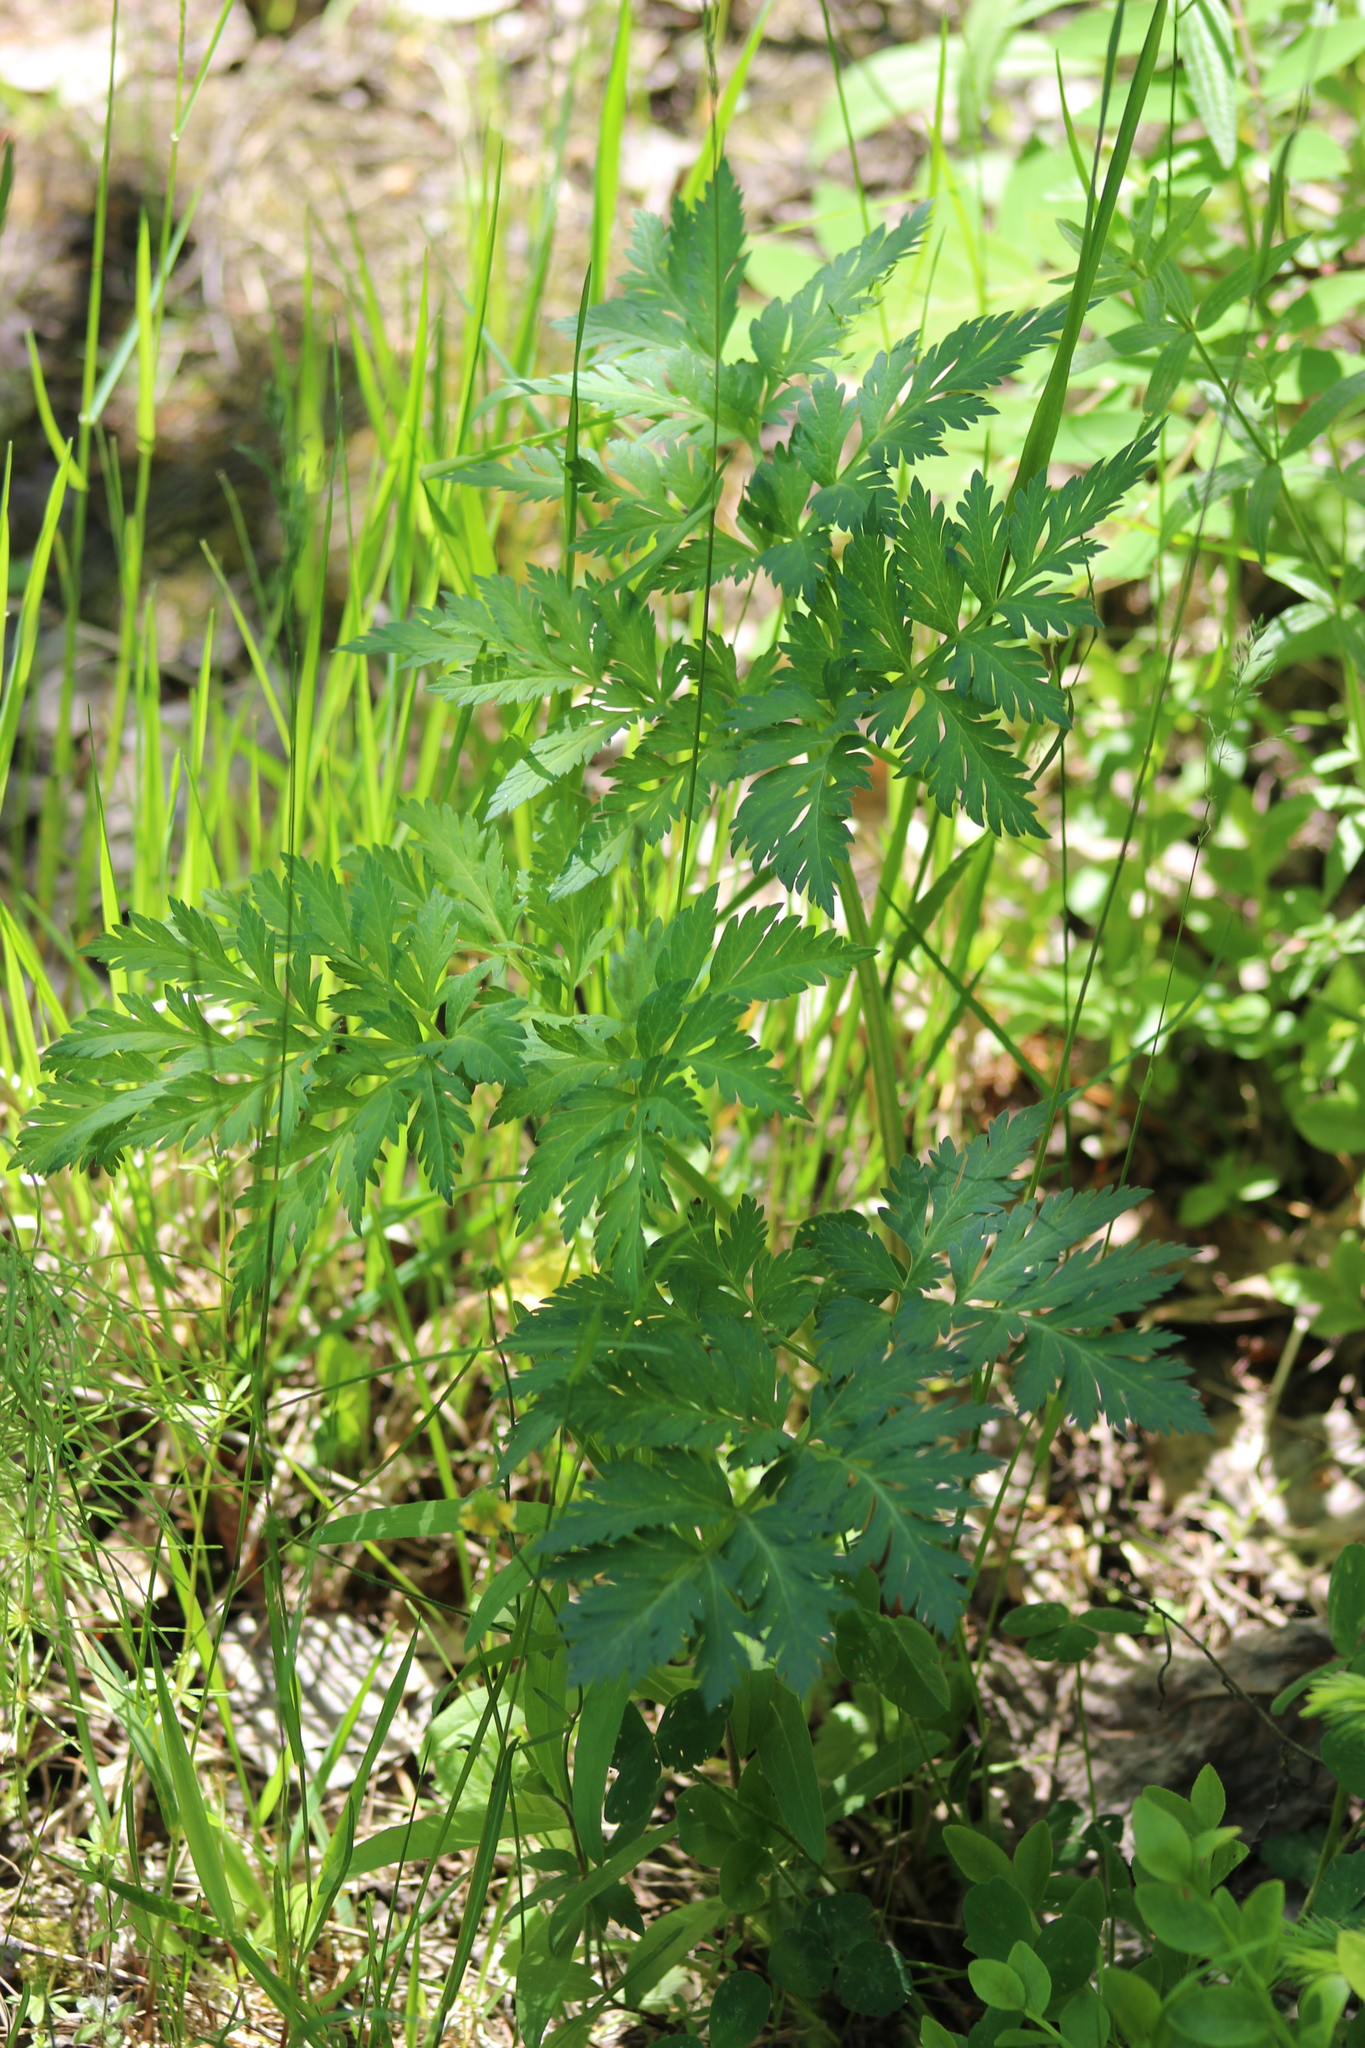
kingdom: Plantae
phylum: Tracheophyta
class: Magnoliopsida
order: Apiales
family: Apiaceae
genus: Pleurospermum
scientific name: Pleurospermum uralense
